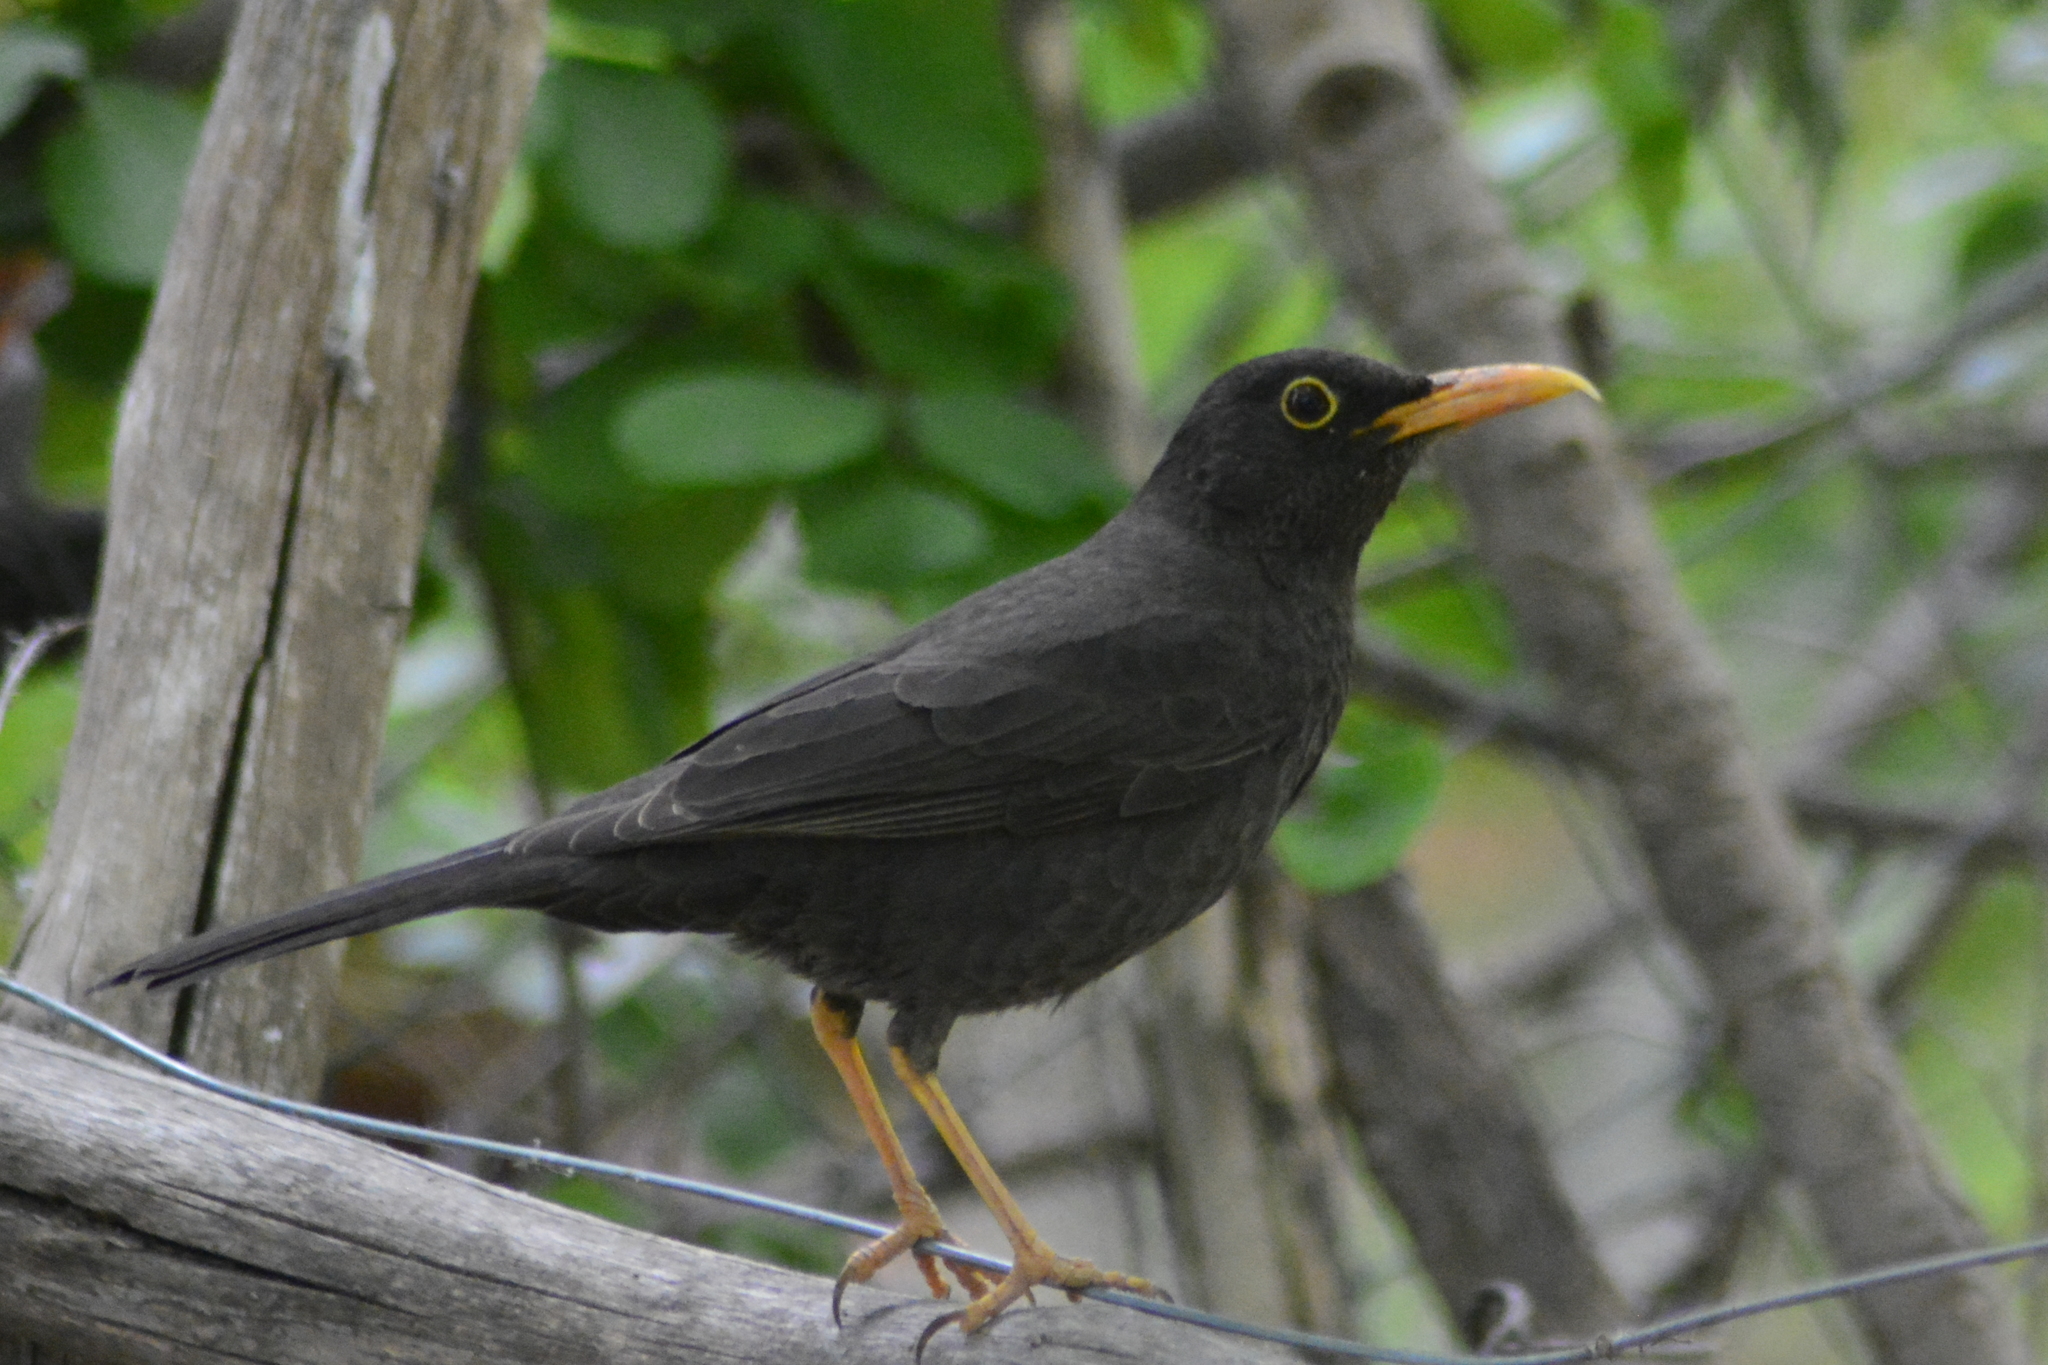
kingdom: Animalia
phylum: Chordata
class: Aves
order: Passeriformes
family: Turdidae
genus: Turdus
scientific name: Turdus chiguanco
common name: Chiguanco thrush
